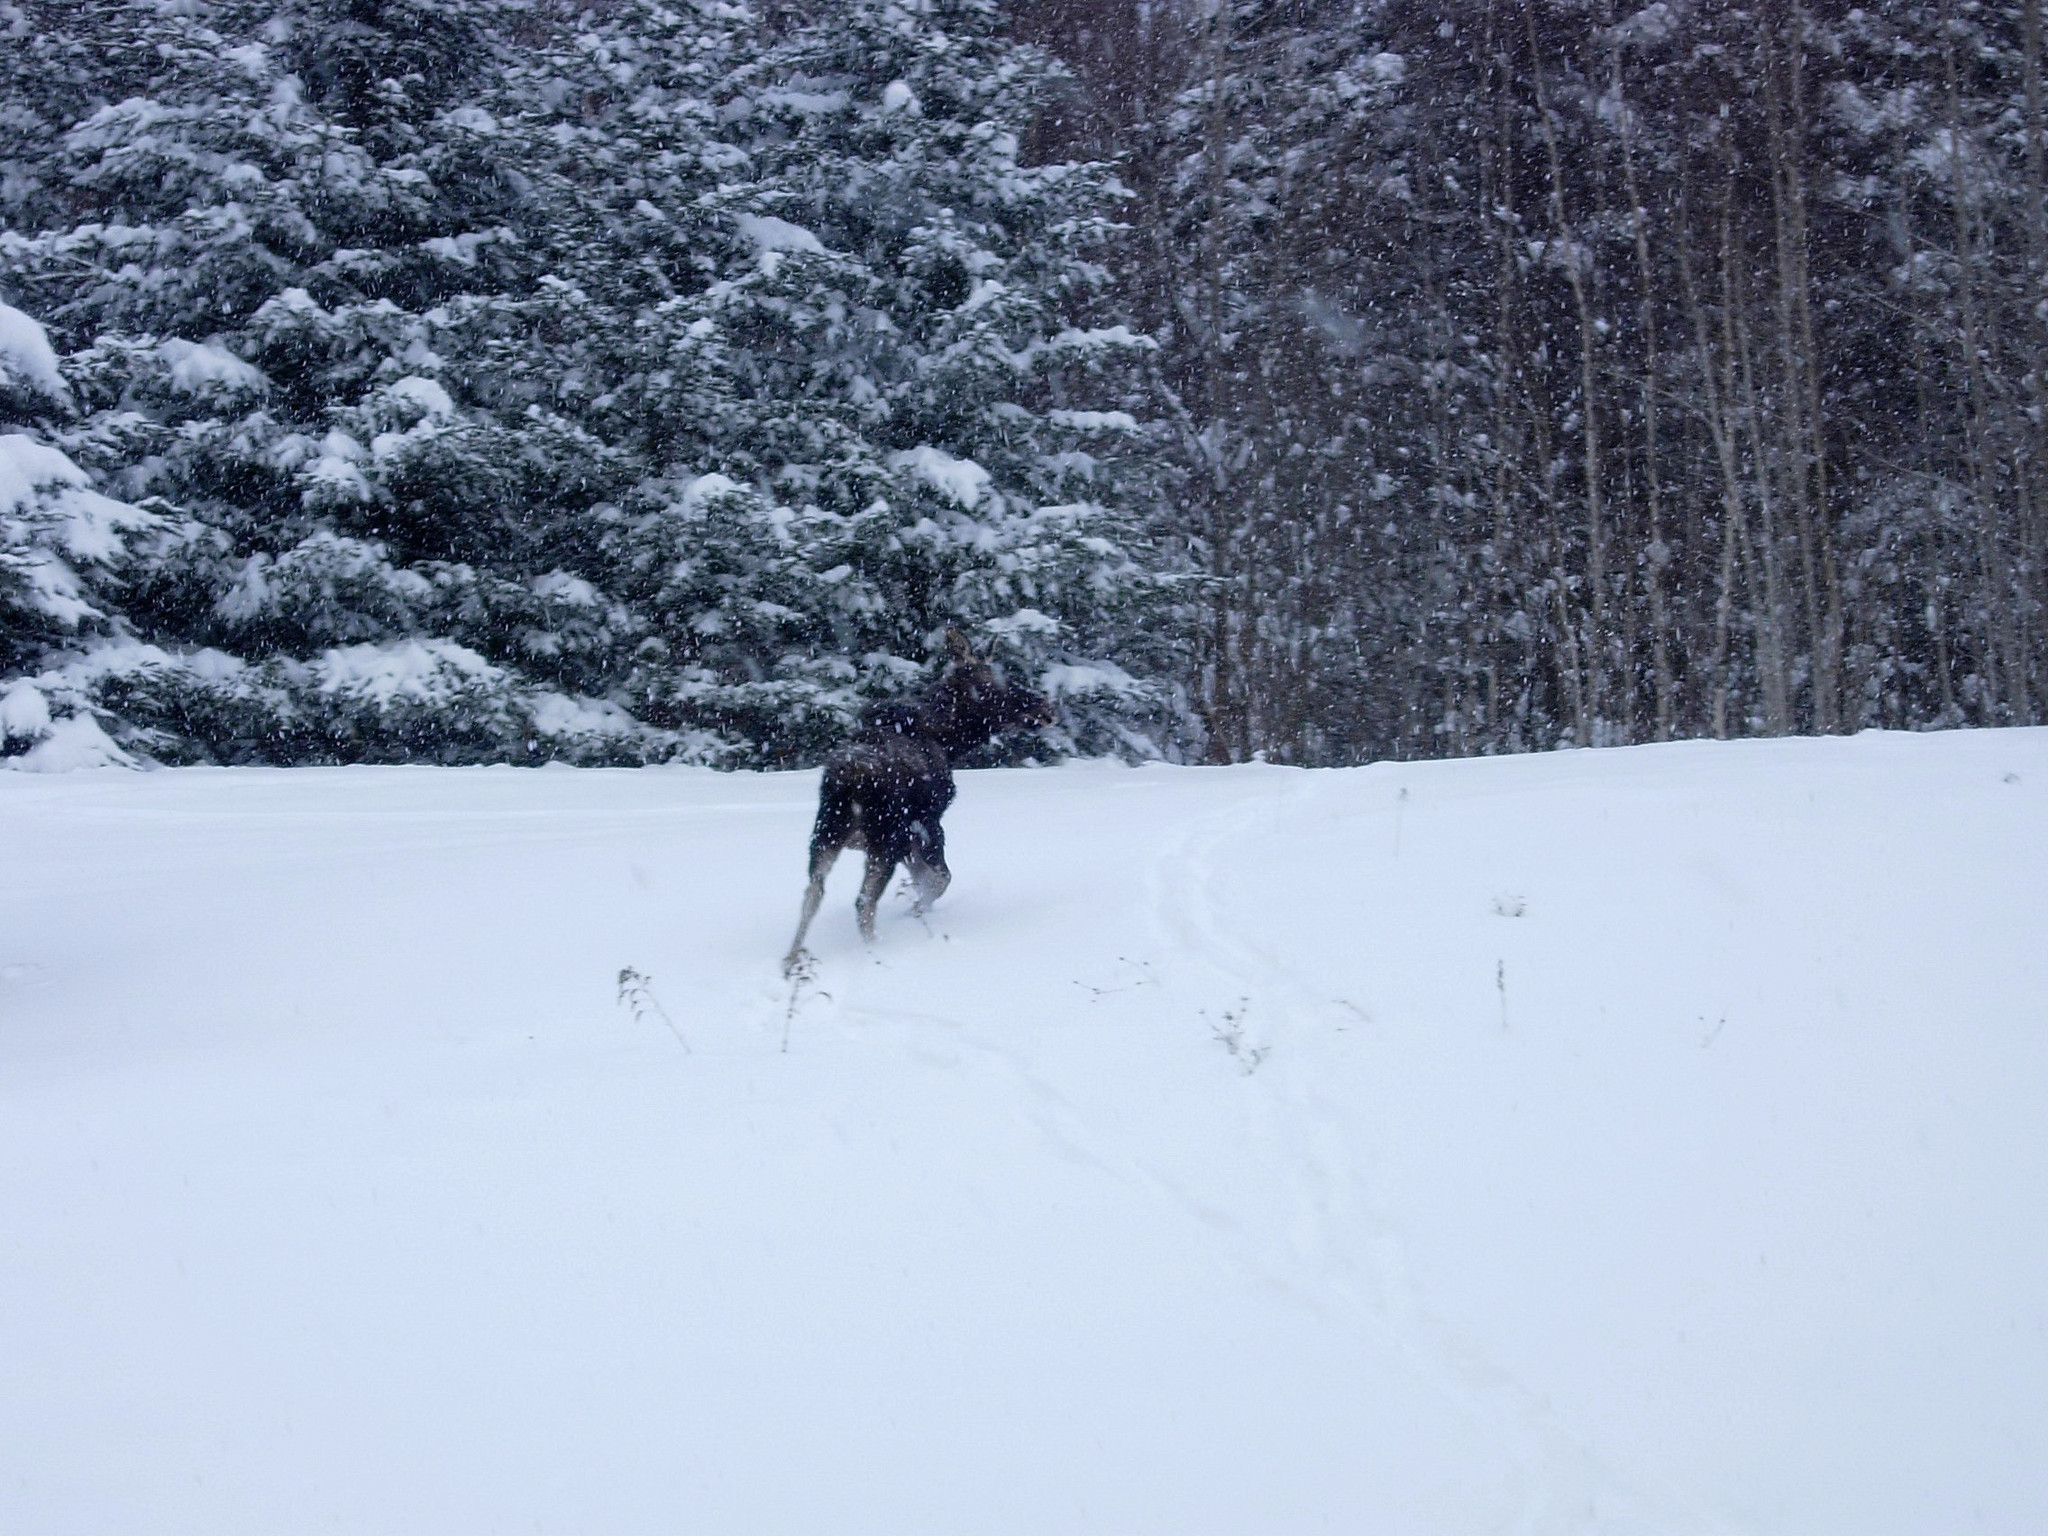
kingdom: Animalia
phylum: Chordata
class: Mammalia
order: Artiodactyla
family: Cervidae
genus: Alces
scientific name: Alces alces
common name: Moose
